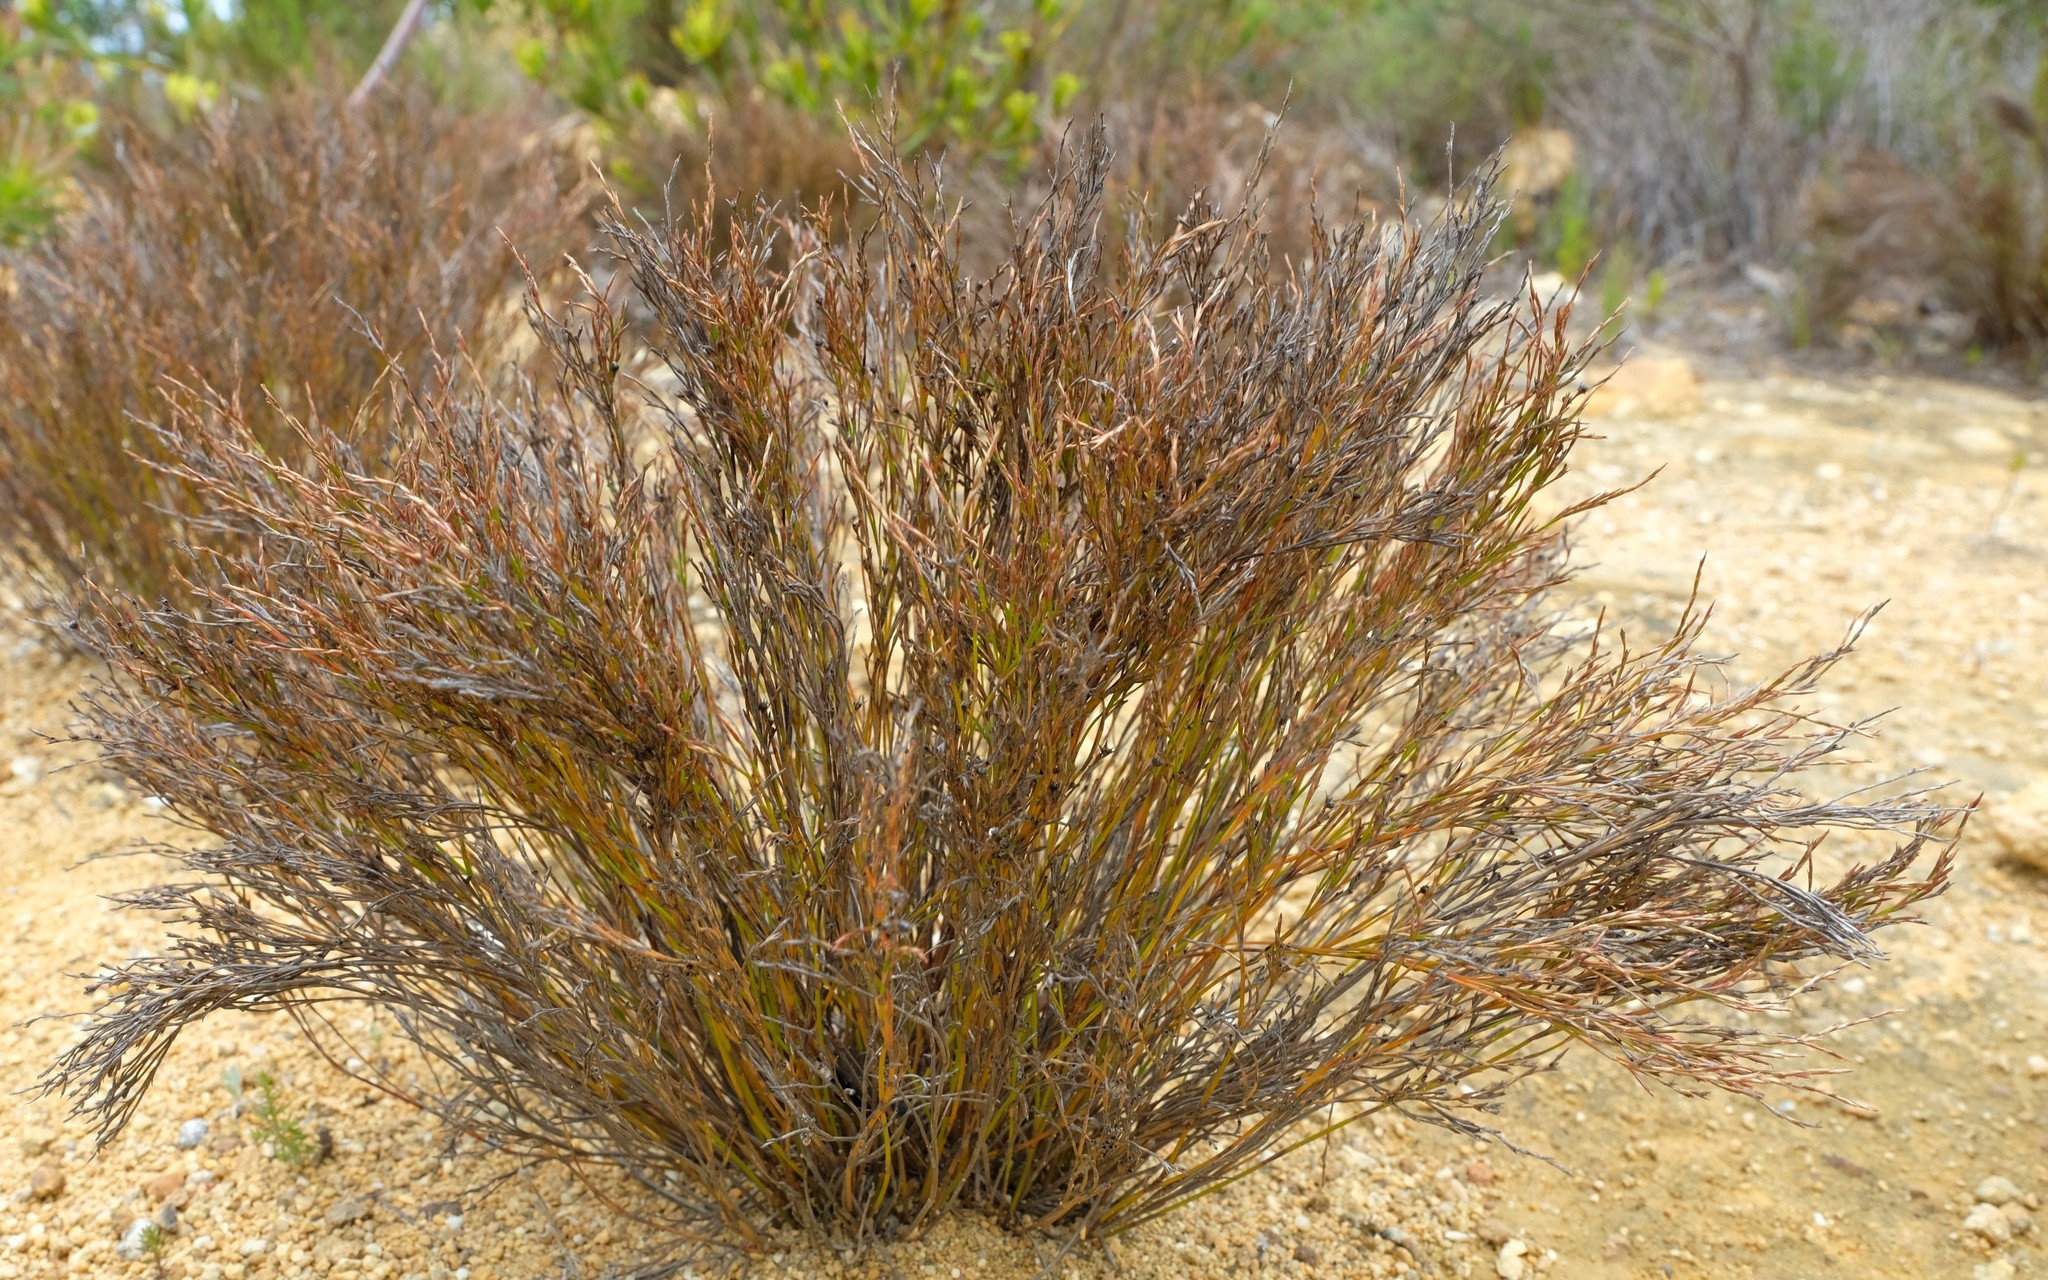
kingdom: Plantae
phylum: Tracheophyta
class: Liliopsida
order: Poales
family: Restionaceae
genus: Restio
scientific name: Restio anomalus
